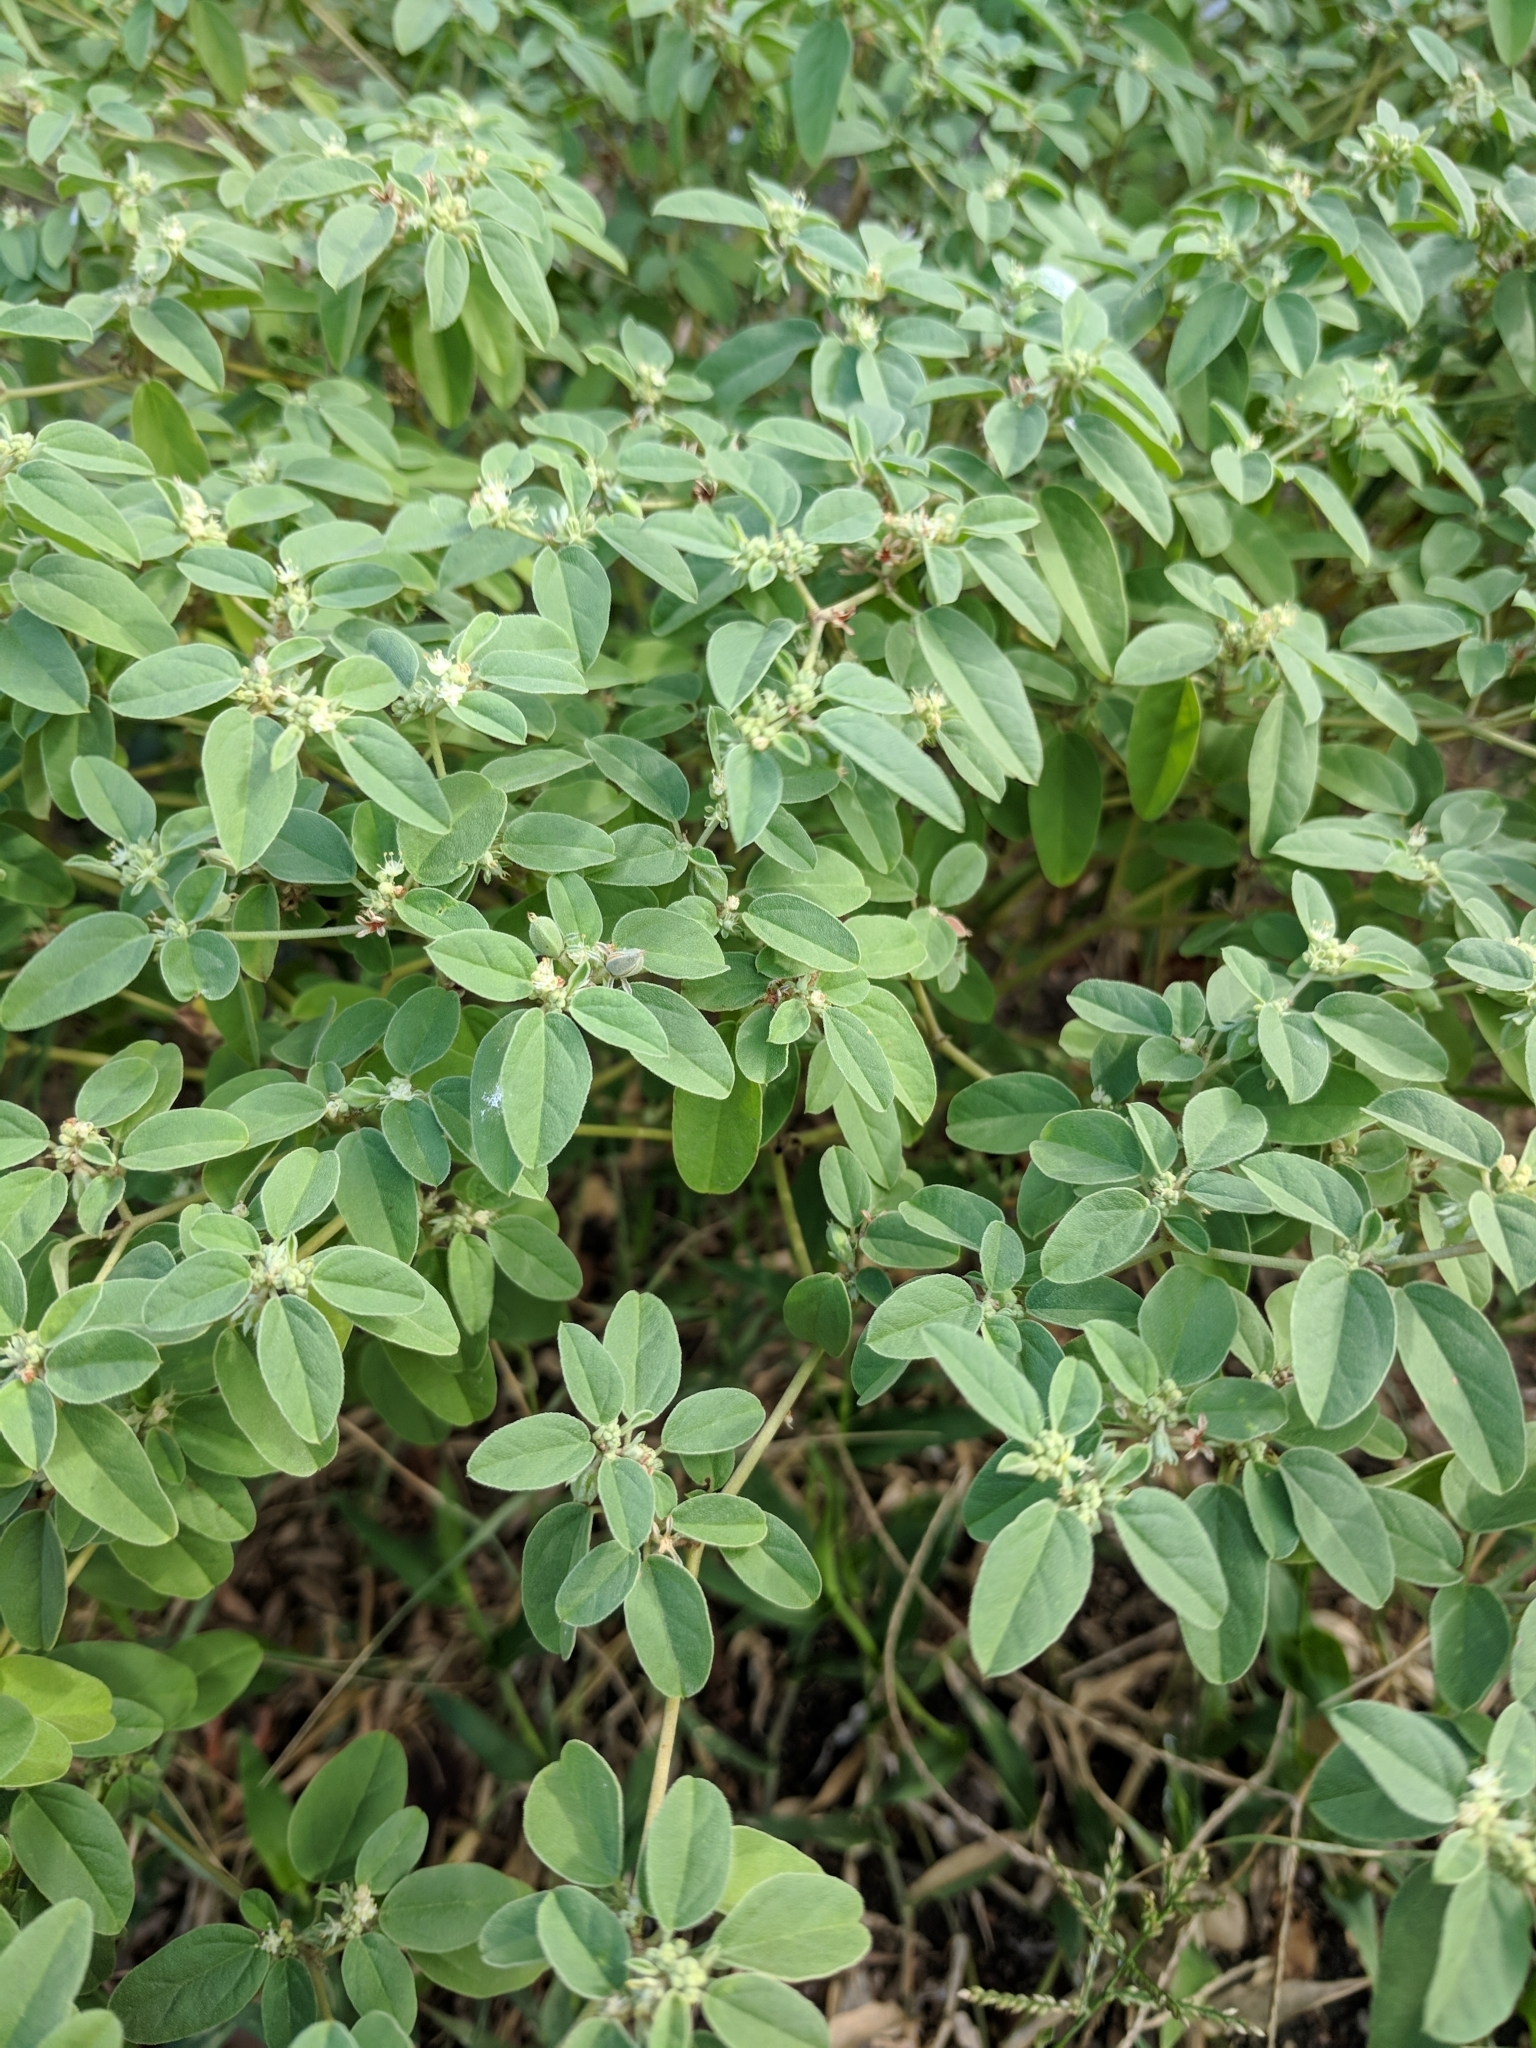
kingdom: Plantae
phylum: Tracheophyta
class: Magnoliopsida
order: Malpighiales
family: Euphorbiaceae
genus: Croton
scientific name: Croton monanthogynus
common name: One-seed croton
